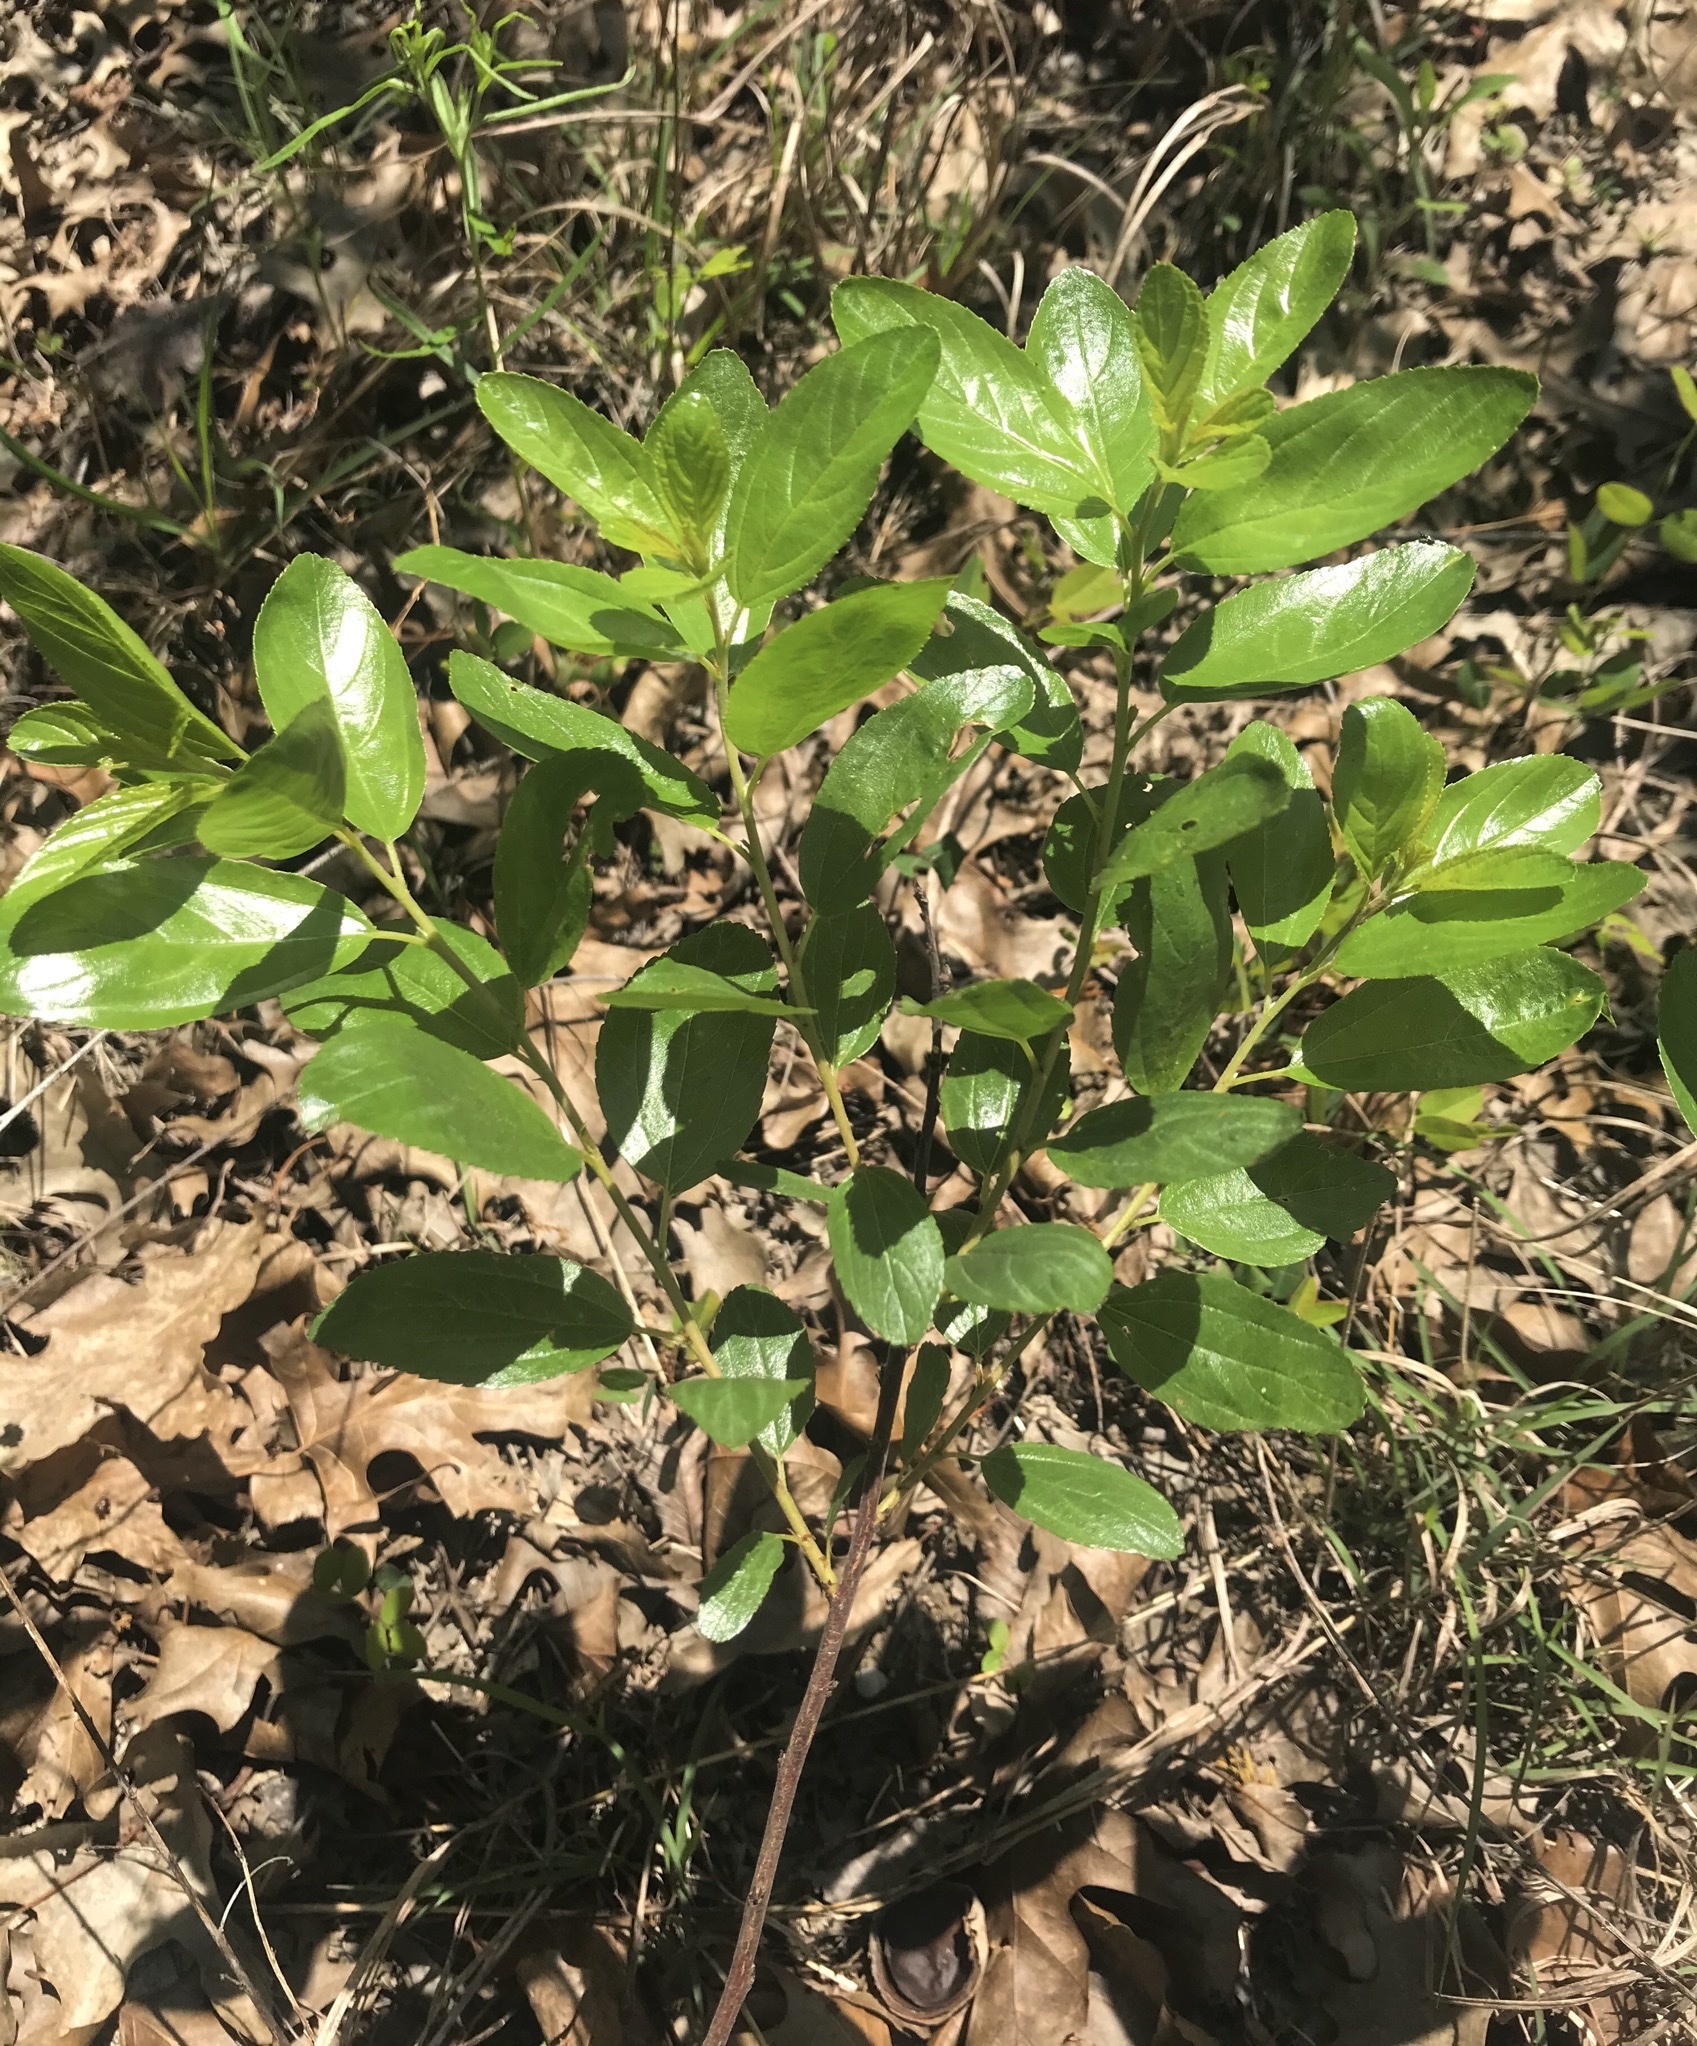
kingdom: Plantae
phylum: Tracheophyta
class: Magnoliopsida
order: Rosales
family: Rhamnaceae
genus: Ceanothus
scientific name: Ceanothus herbaceus
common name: Inland ceanothus
